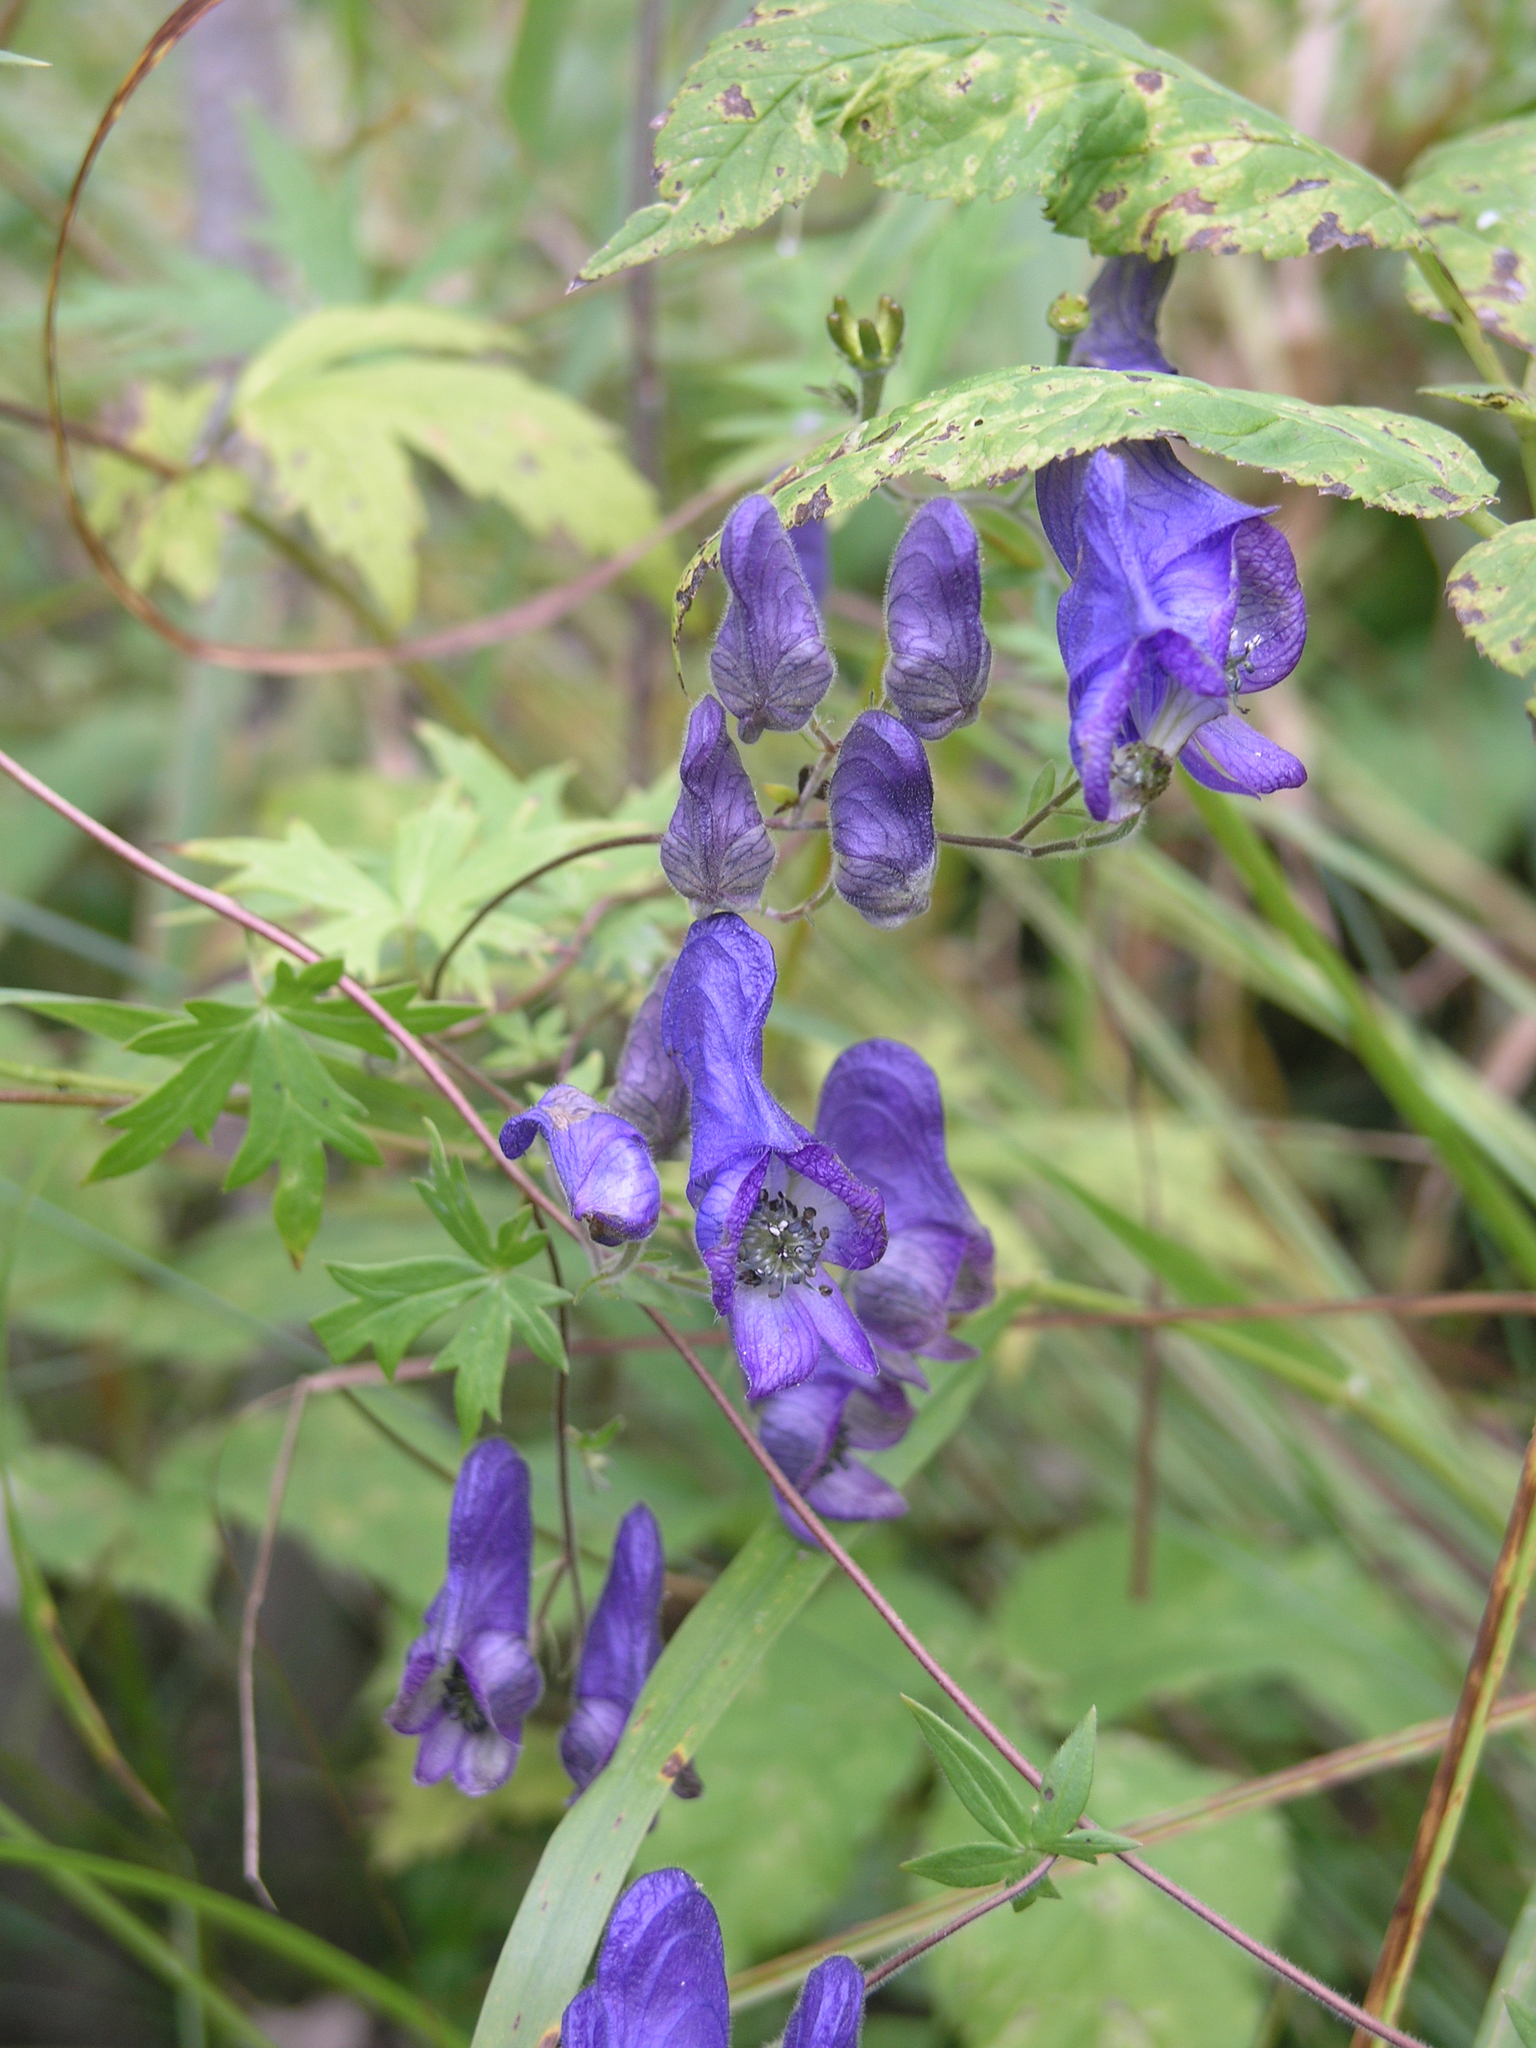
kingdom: Plantae
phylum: Tracheophyta
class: Magnoliopsida
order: Ranunculales
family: Ranunculaceae
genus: Aconitum
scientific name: Aconitum volubile
